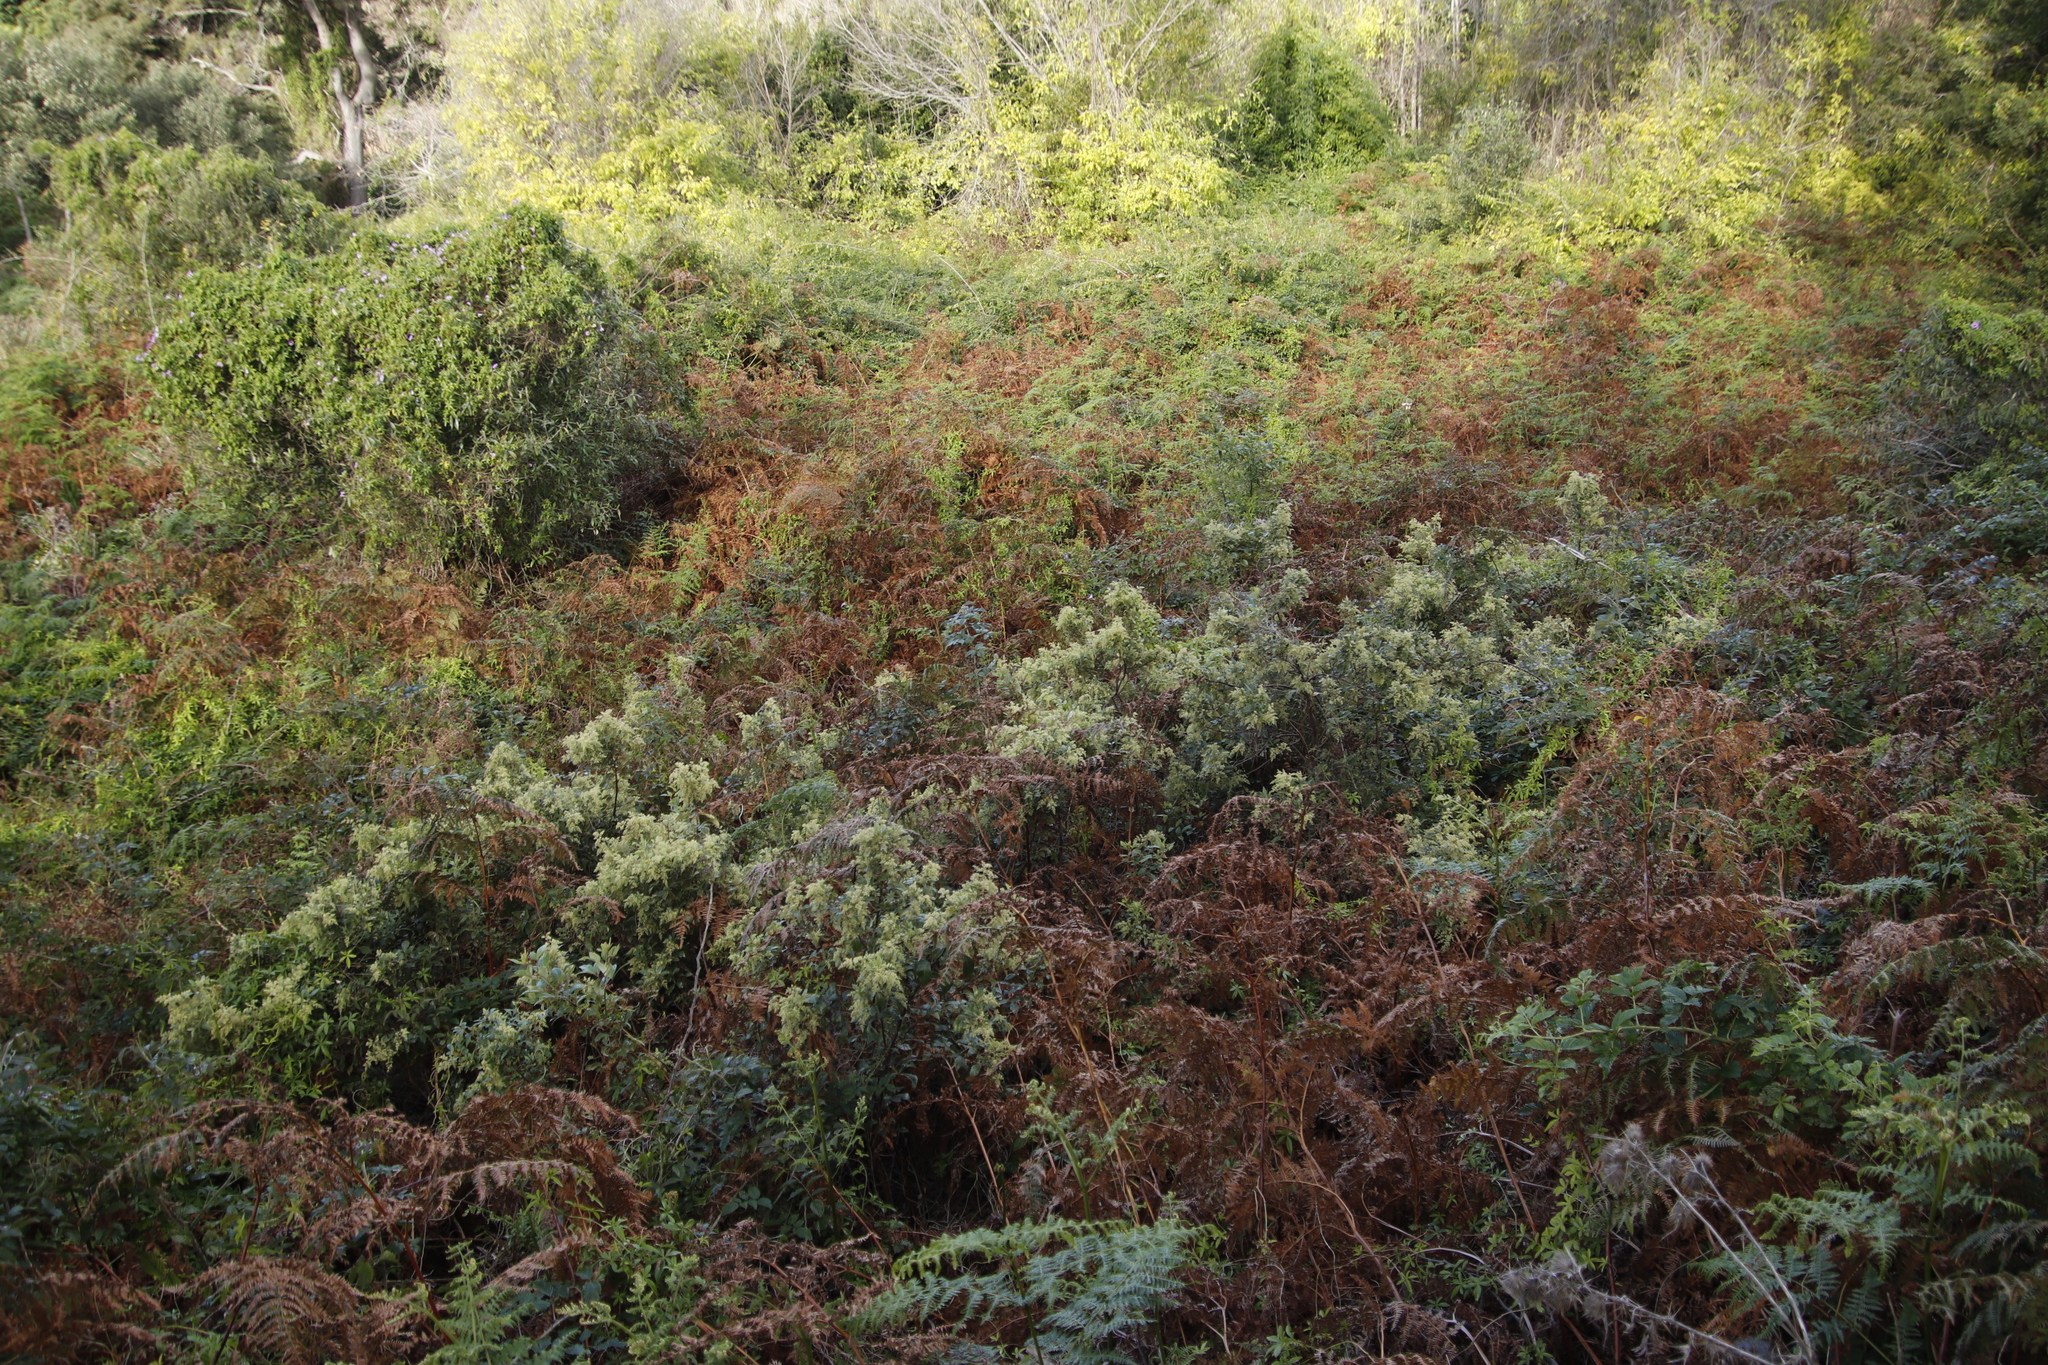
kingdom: Plantae
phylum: Tracheophyta
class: Magnoliopsida
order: Sapindales
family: Anacardiaceae
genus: Searsia
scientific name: Searsia tomentosa
